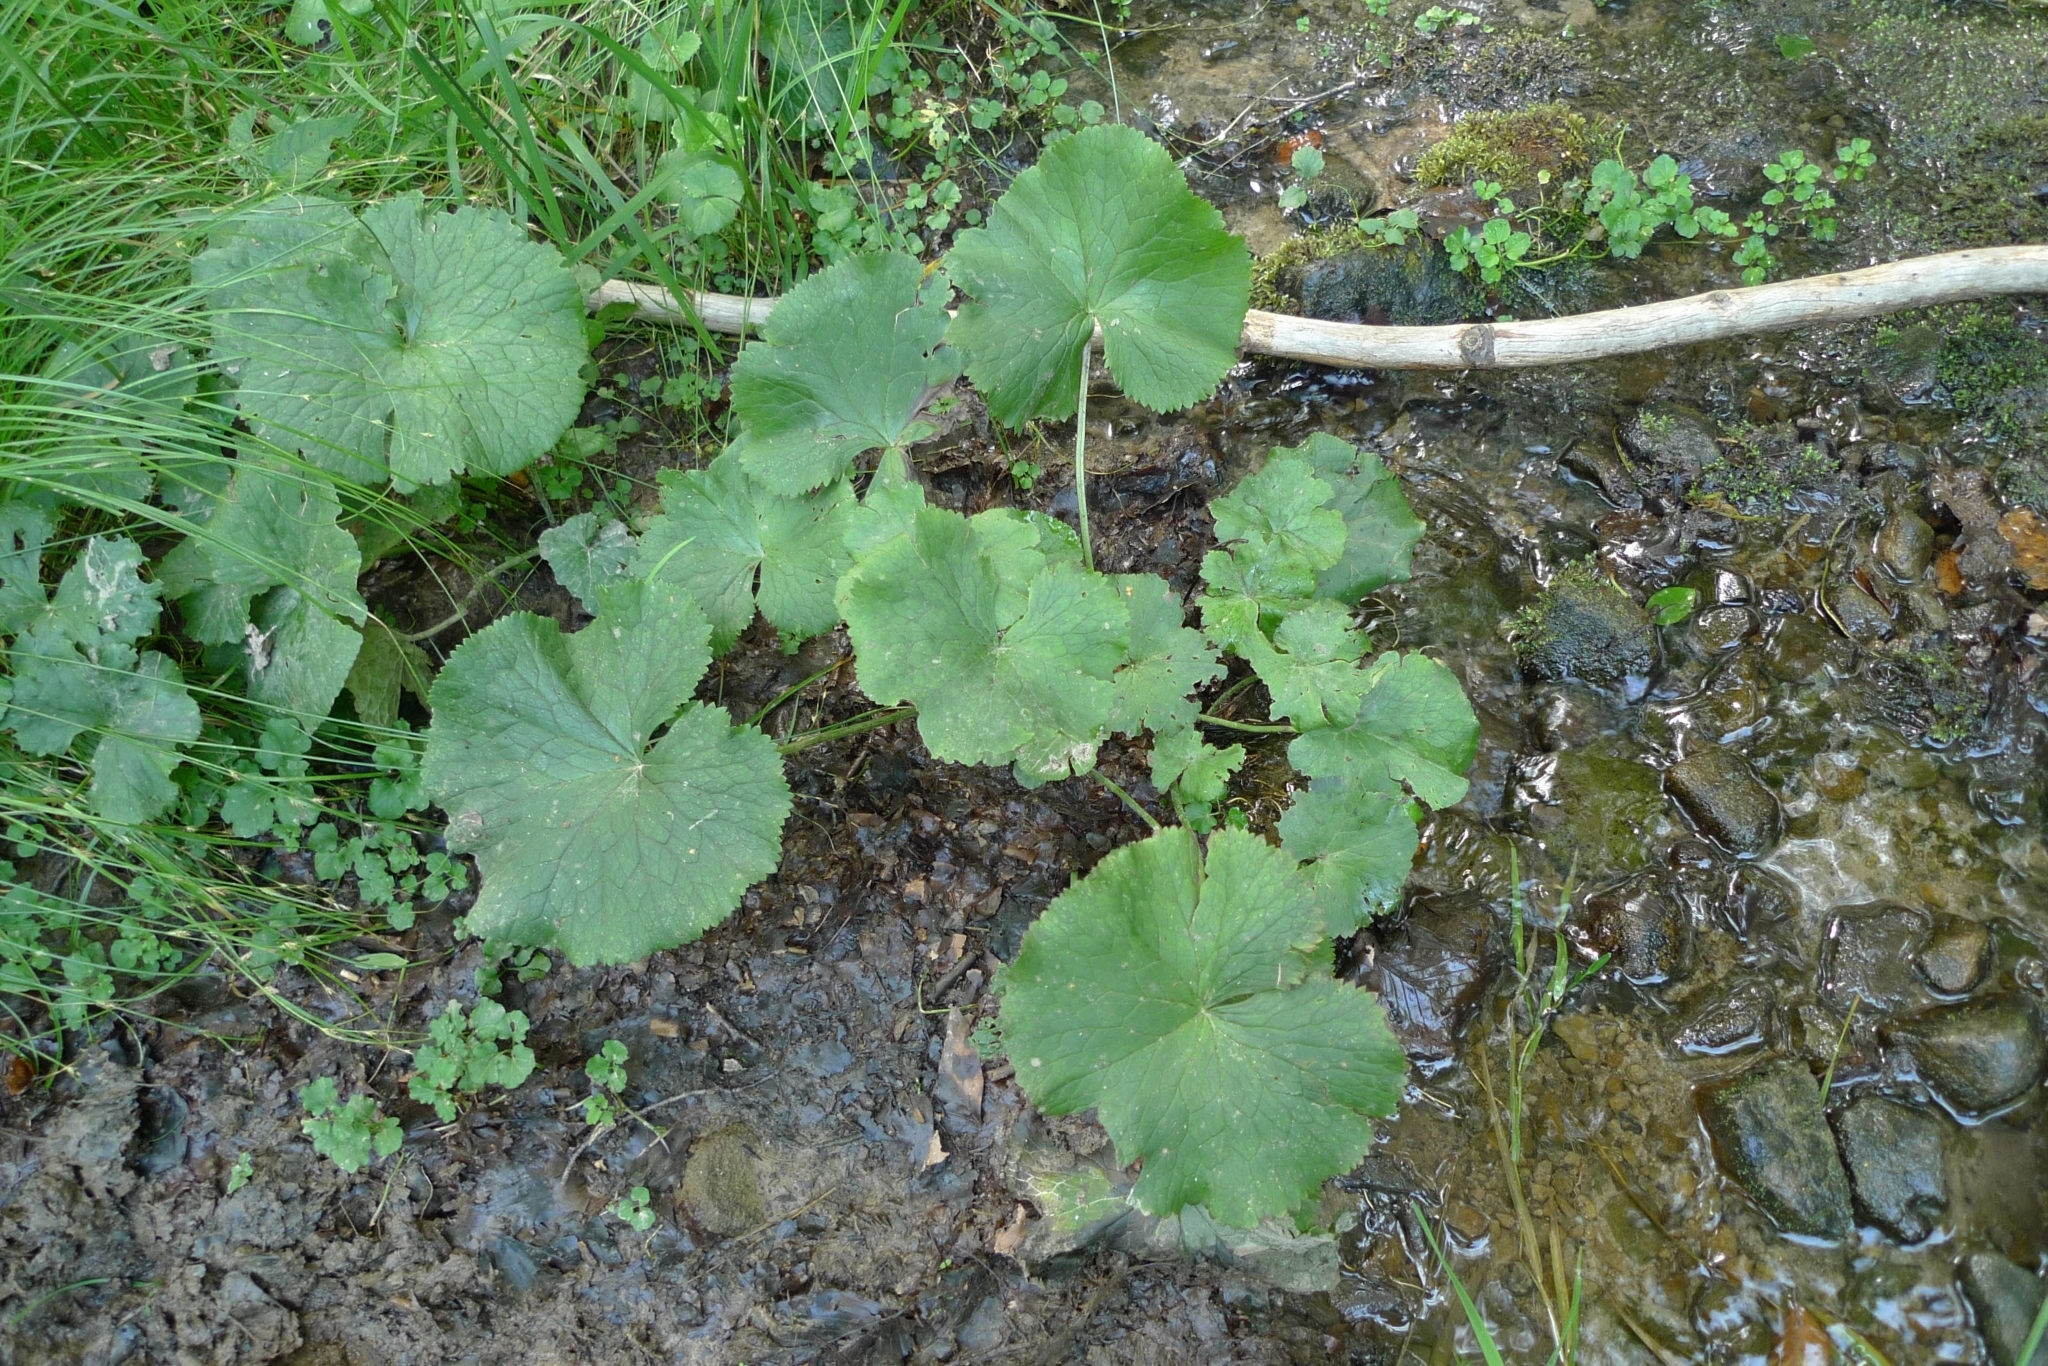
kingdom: Plantae
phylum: Tracheophyta
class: Magnoliopsida
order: Ranunculales
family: Ranunculaceae
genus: Caltha
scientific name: Caltha palustris
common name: Marsh marigold
